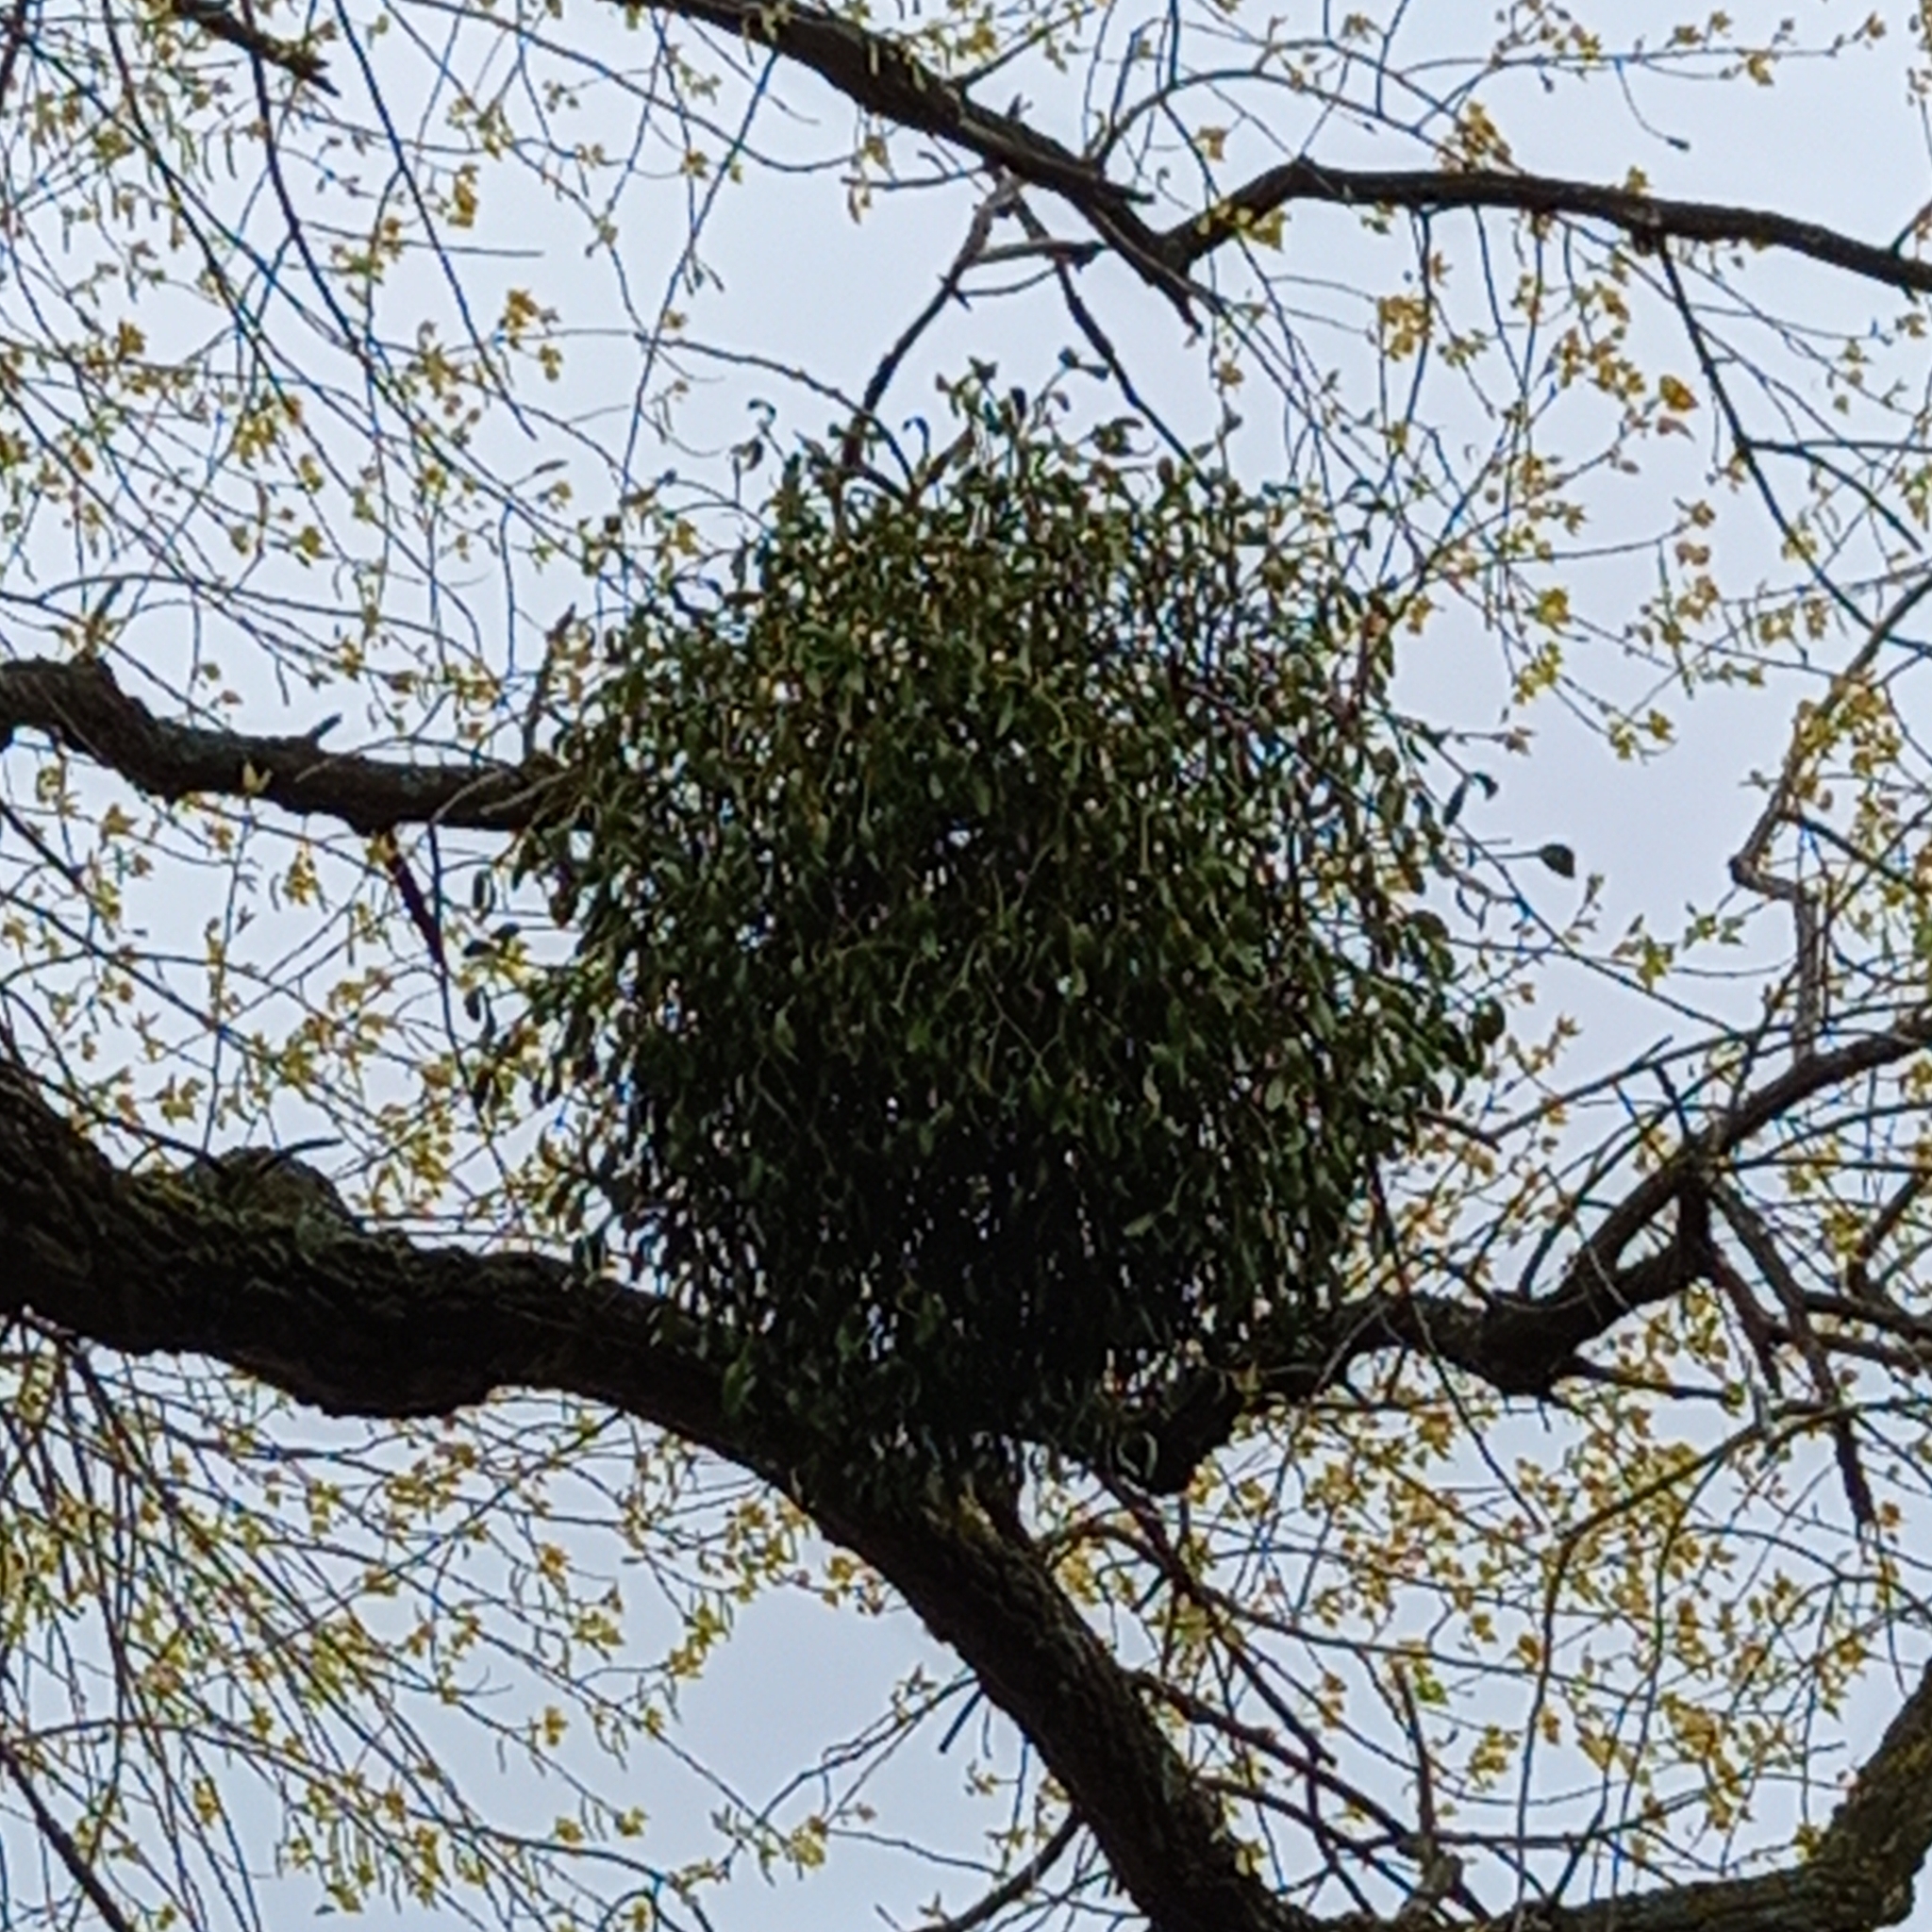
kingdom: Plantae
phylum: Tracheophyta
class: Magnoliopsida
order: Santalales
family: Viscaceae
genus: Viscum
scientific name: Viscum album
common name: Mistletoe
